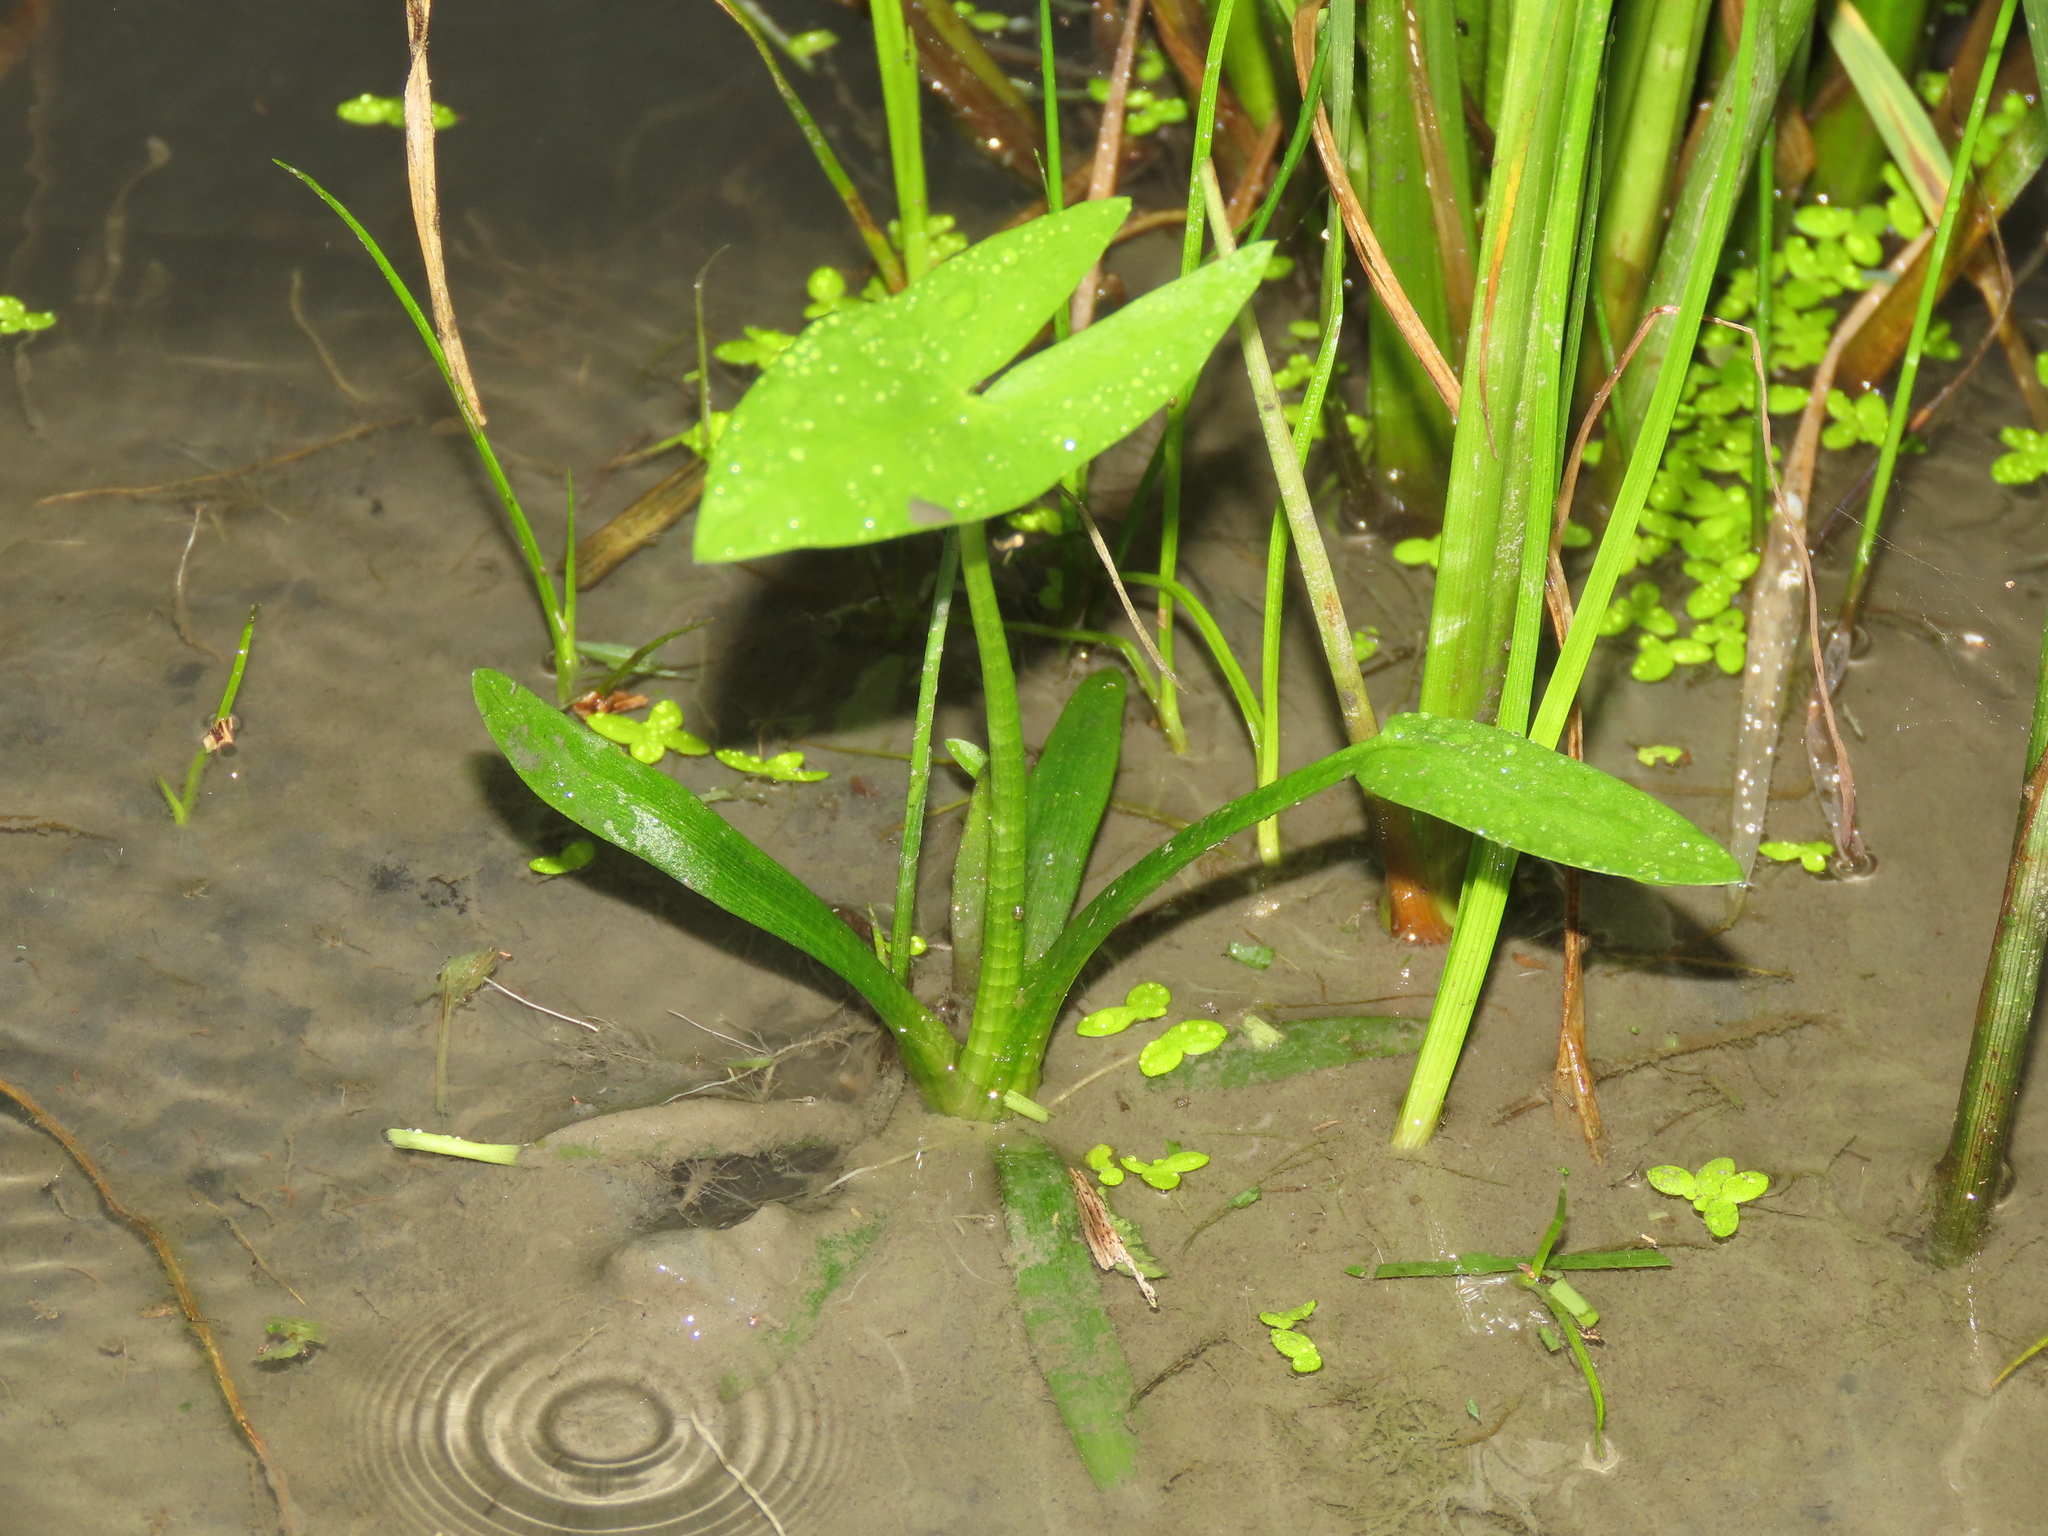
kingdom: Plantae
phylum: Tracheophyta
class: Liliopsida
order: Alismatales
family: Alismataceae
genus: Sagittaria
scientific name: Sagittaria trifolia
